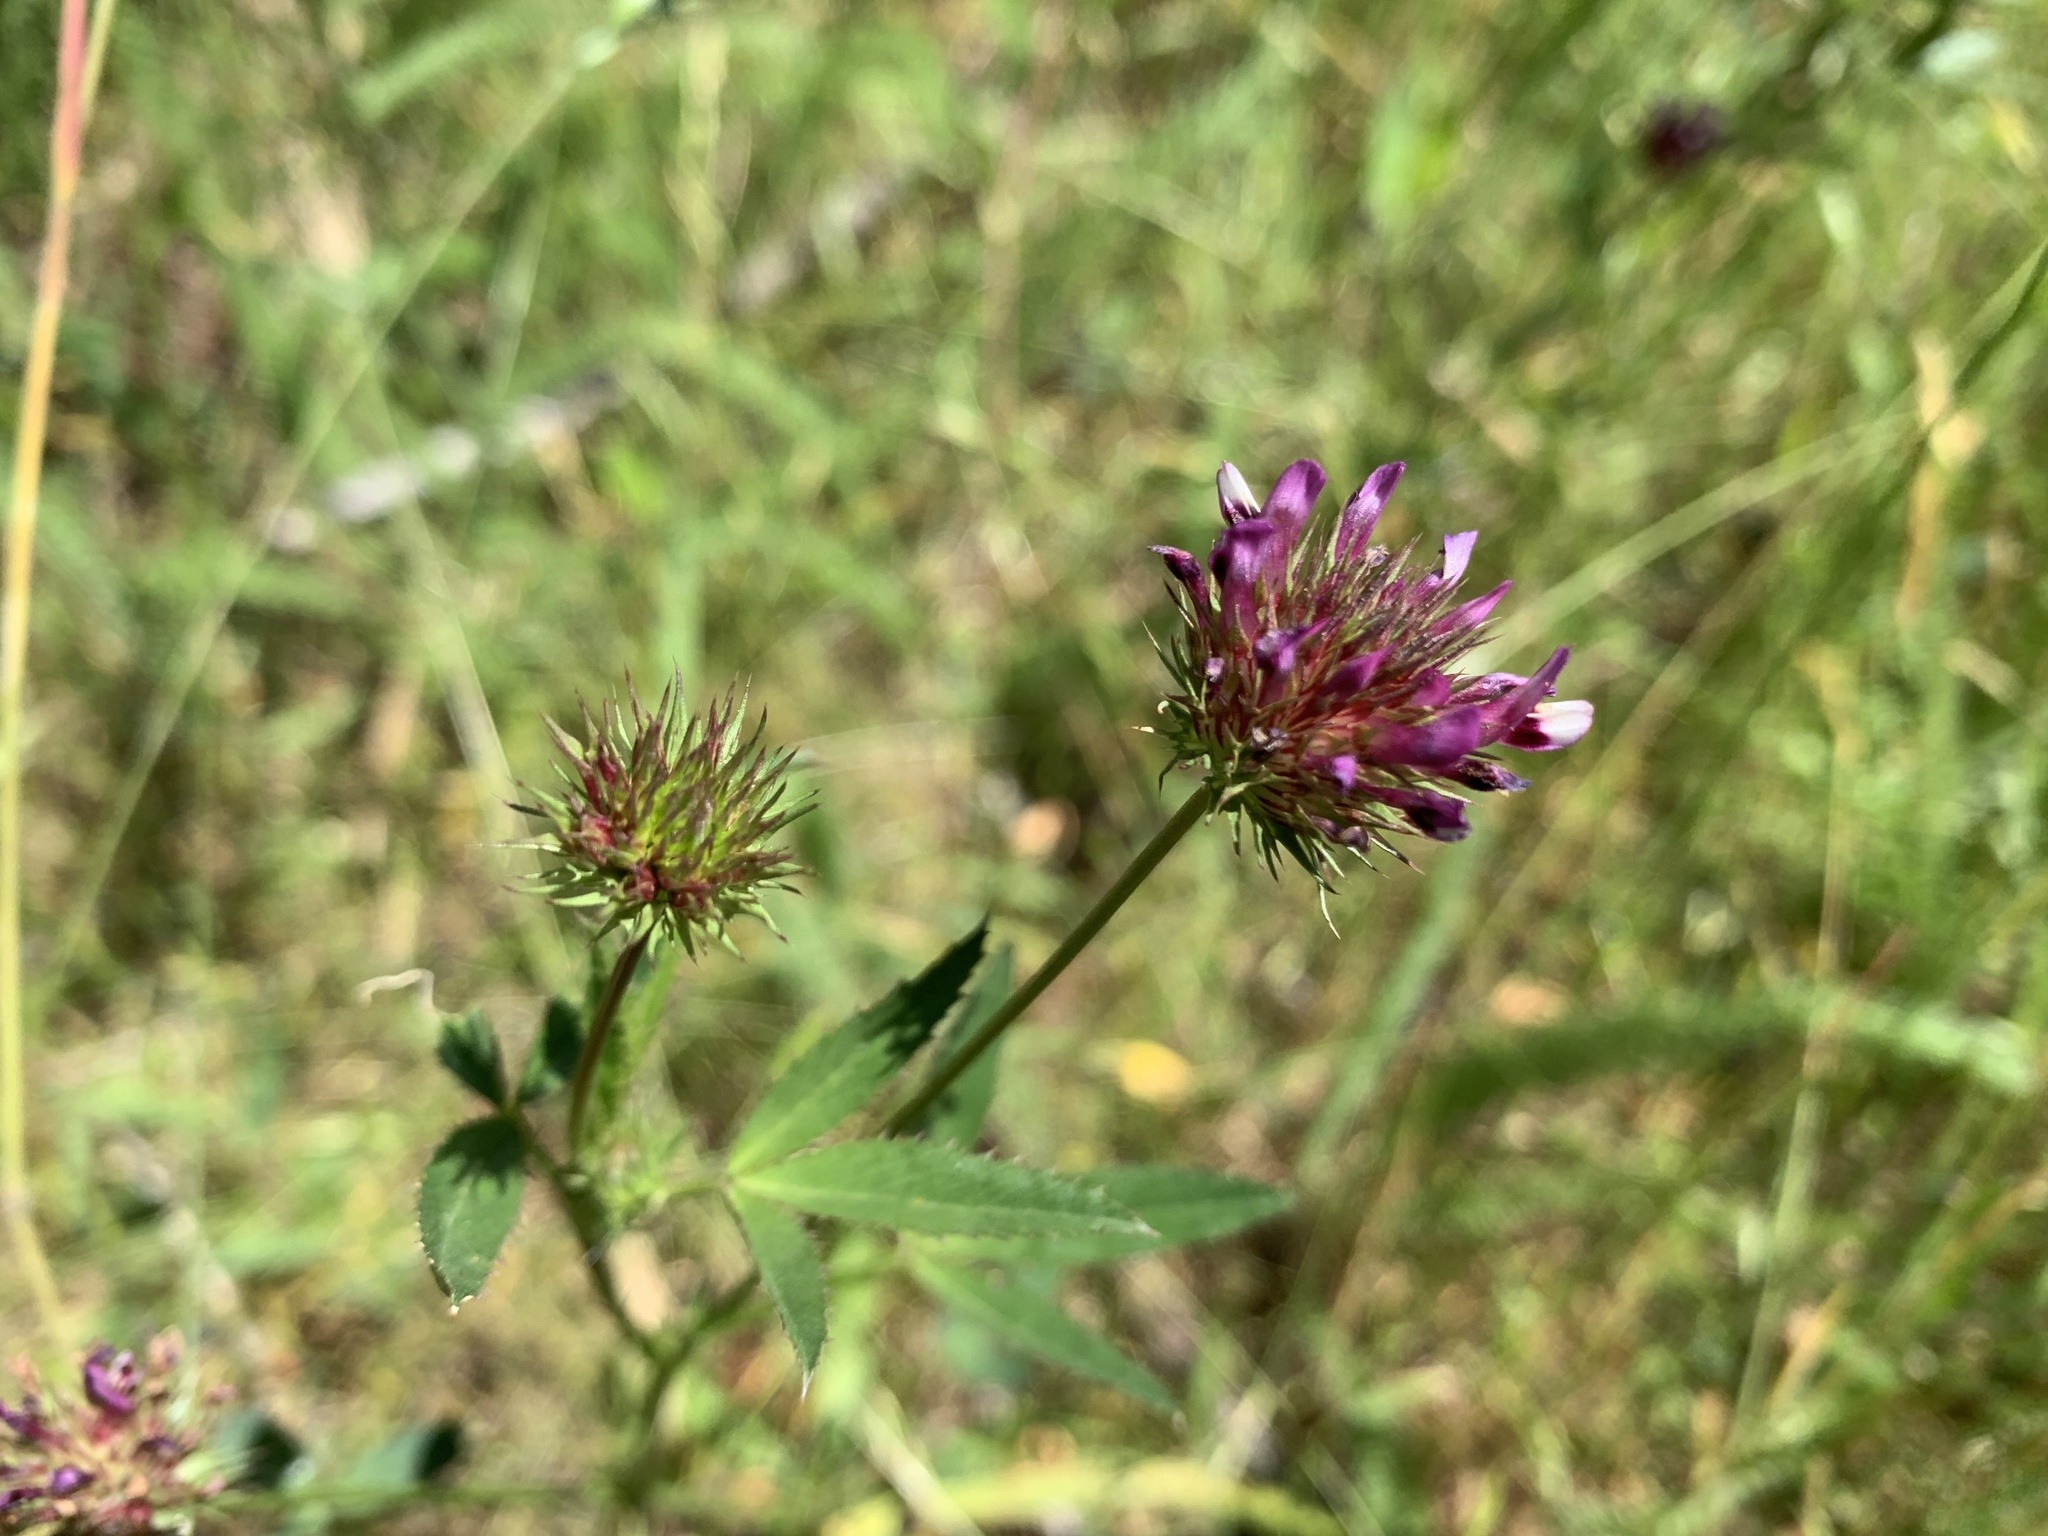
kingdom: Plantae
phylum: Tracheophyta
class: Magnoliopsida
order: Fabales
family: Fabaceae
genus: Trifolium
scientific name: Trifolium willdenovii
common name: Tomcat clover
